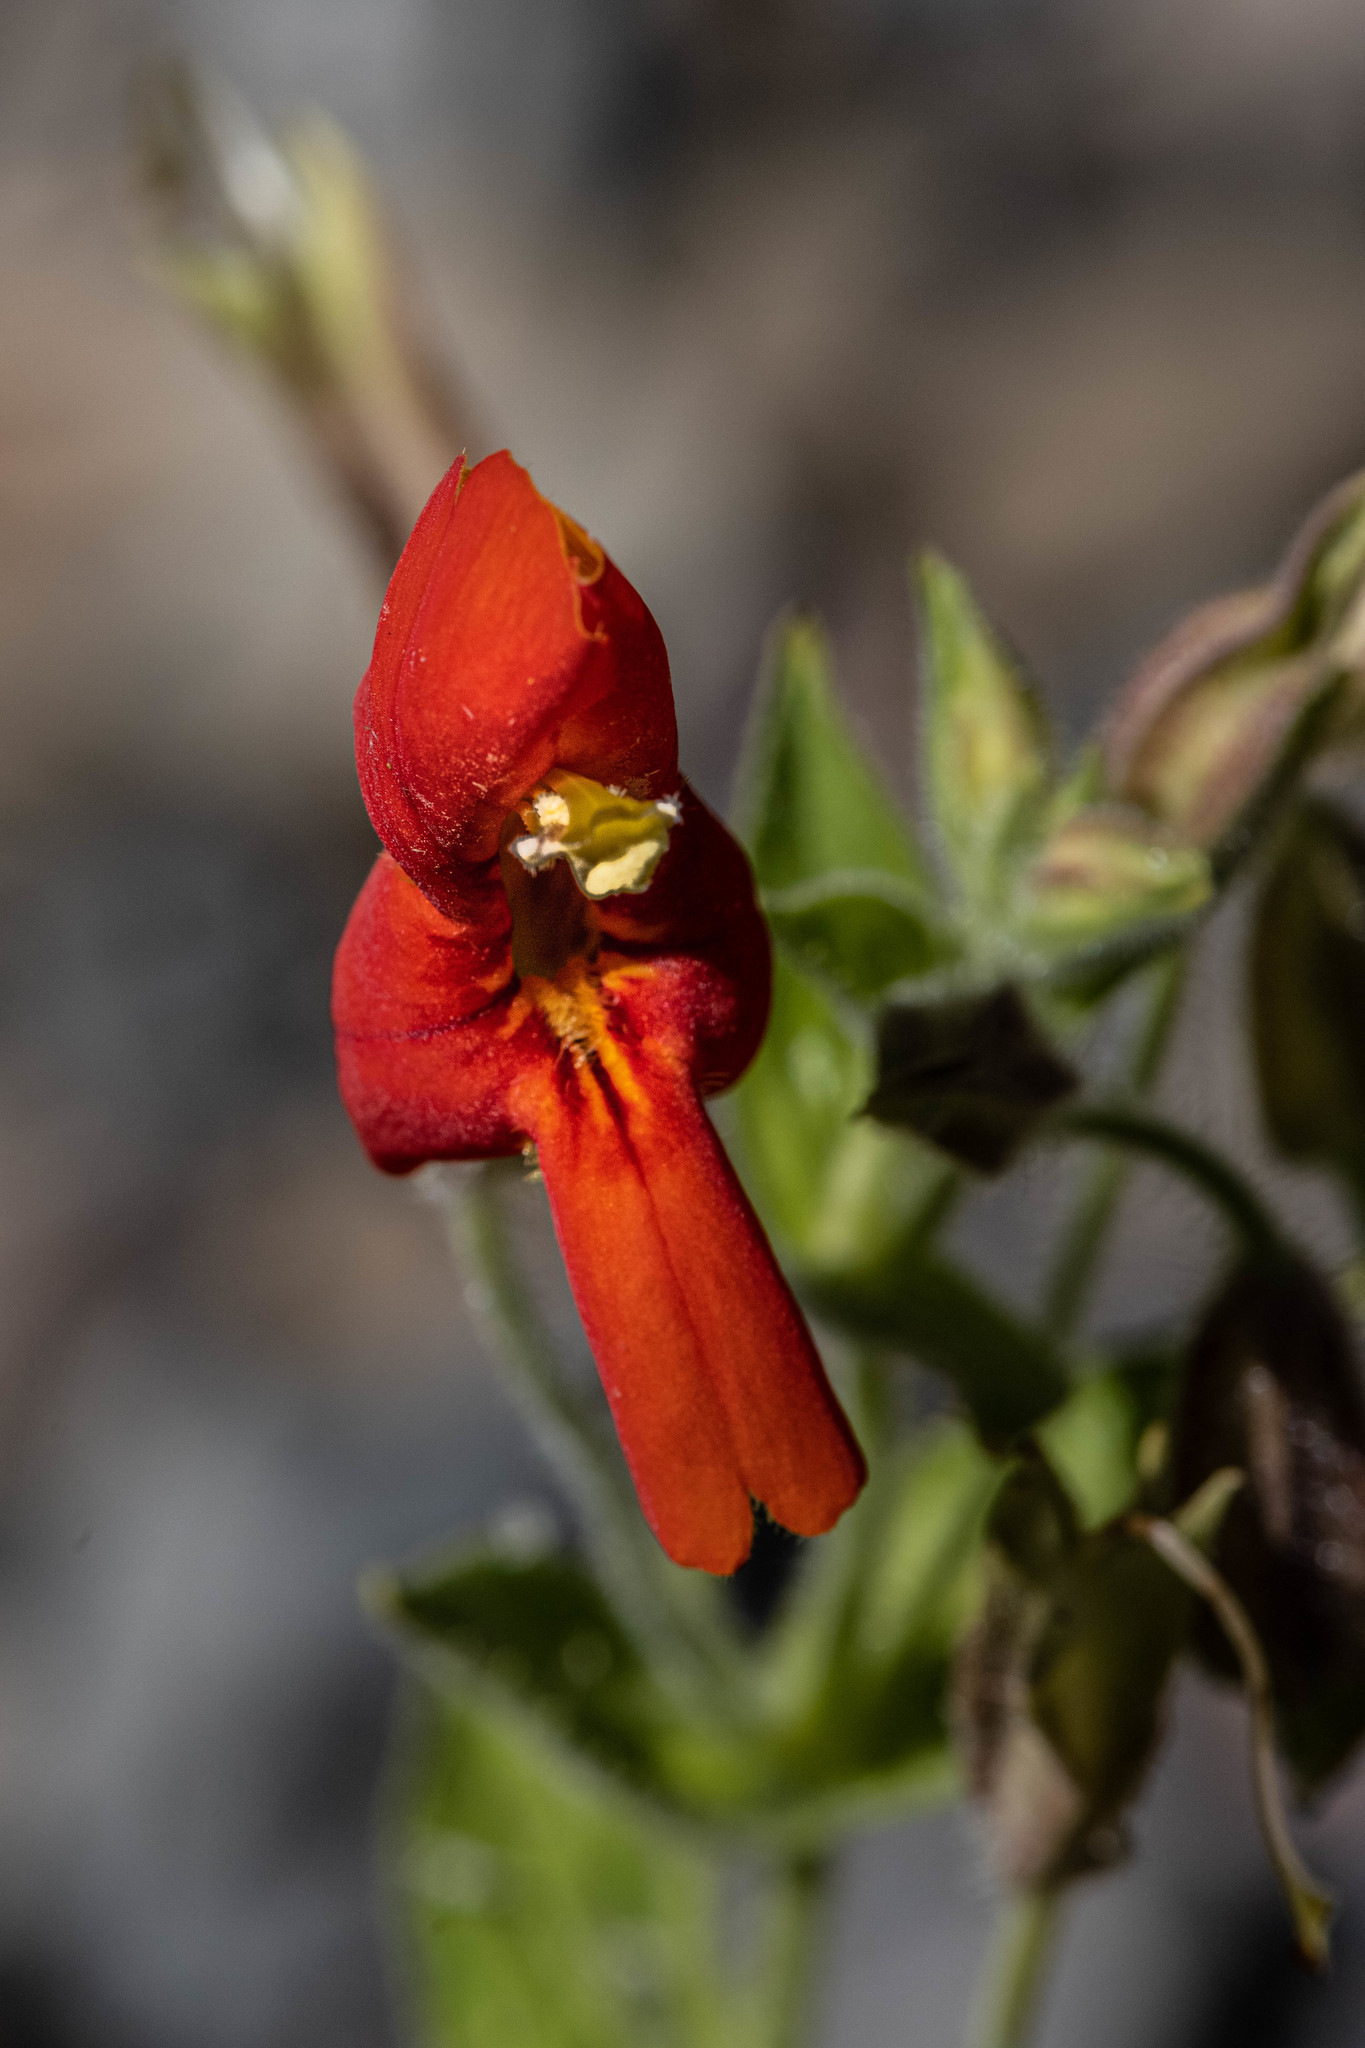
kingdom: Plantae
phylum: Tracheophyta
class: Magnoliopsida
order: Lamiales
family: Phrymaceae
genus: Erythranthe
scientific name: Erythranthe cardinalis
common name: Scarlet monkey-flower
